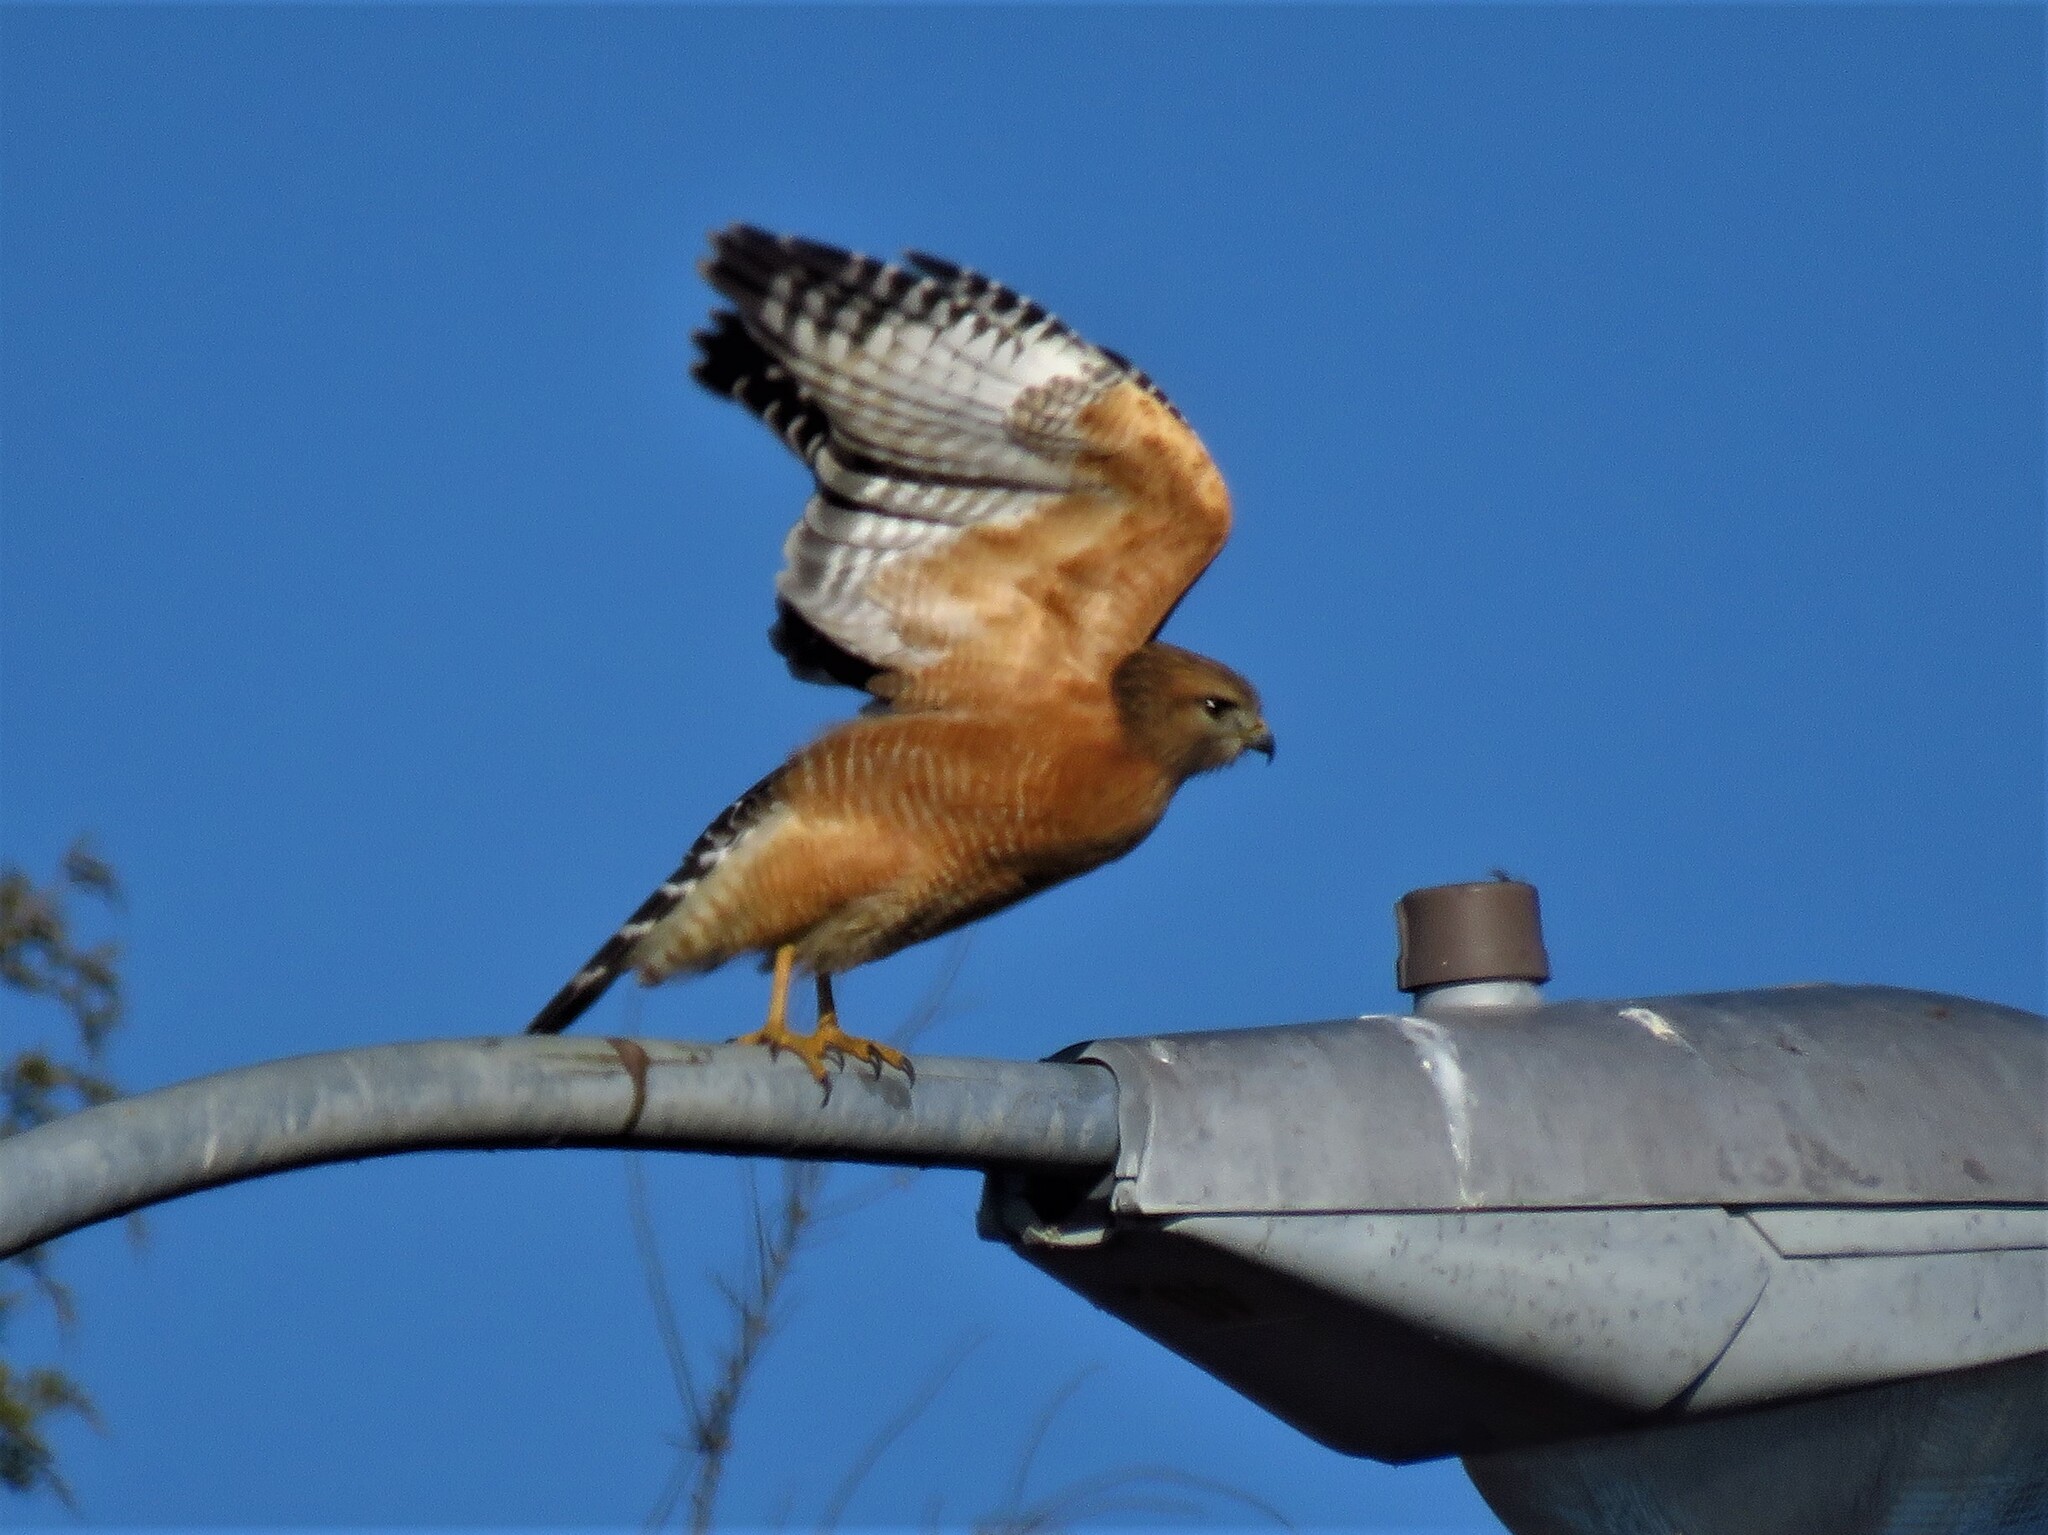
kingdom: Animalia
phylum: Chordata
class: Aves
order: Accipitriformes
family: Accipitridae
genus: Buteo
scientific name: Buteo lineatus
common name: Red-shouldered hawk
